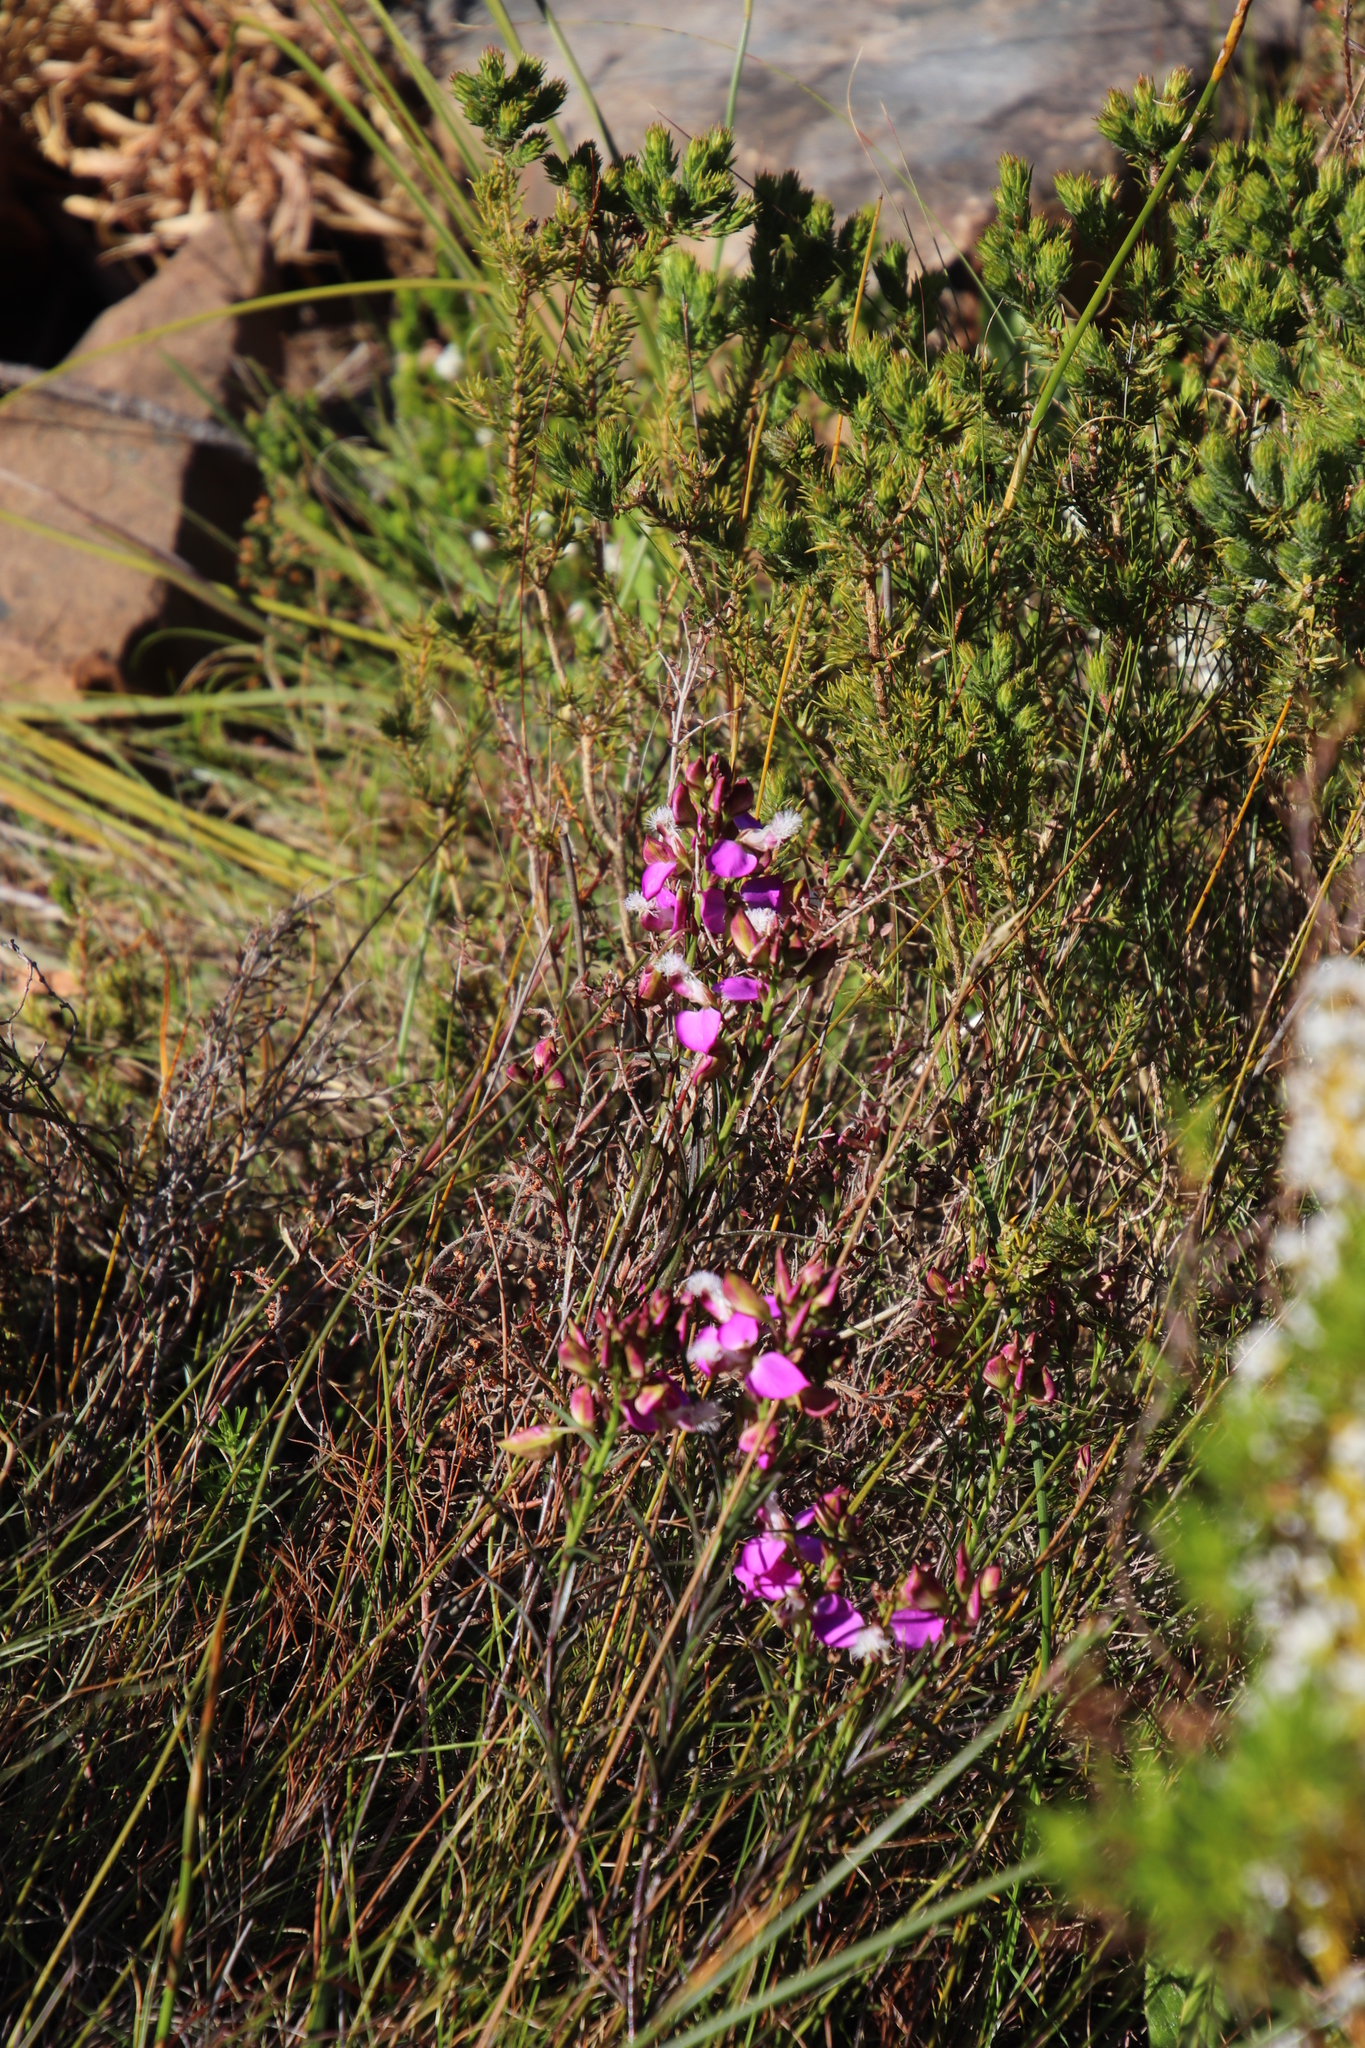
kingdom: Plantae
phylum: Tracheophyta
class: Magnoliopsida
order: Fabales
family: Polygalaceae
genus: Polygala
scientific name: Polygala bracteolata
